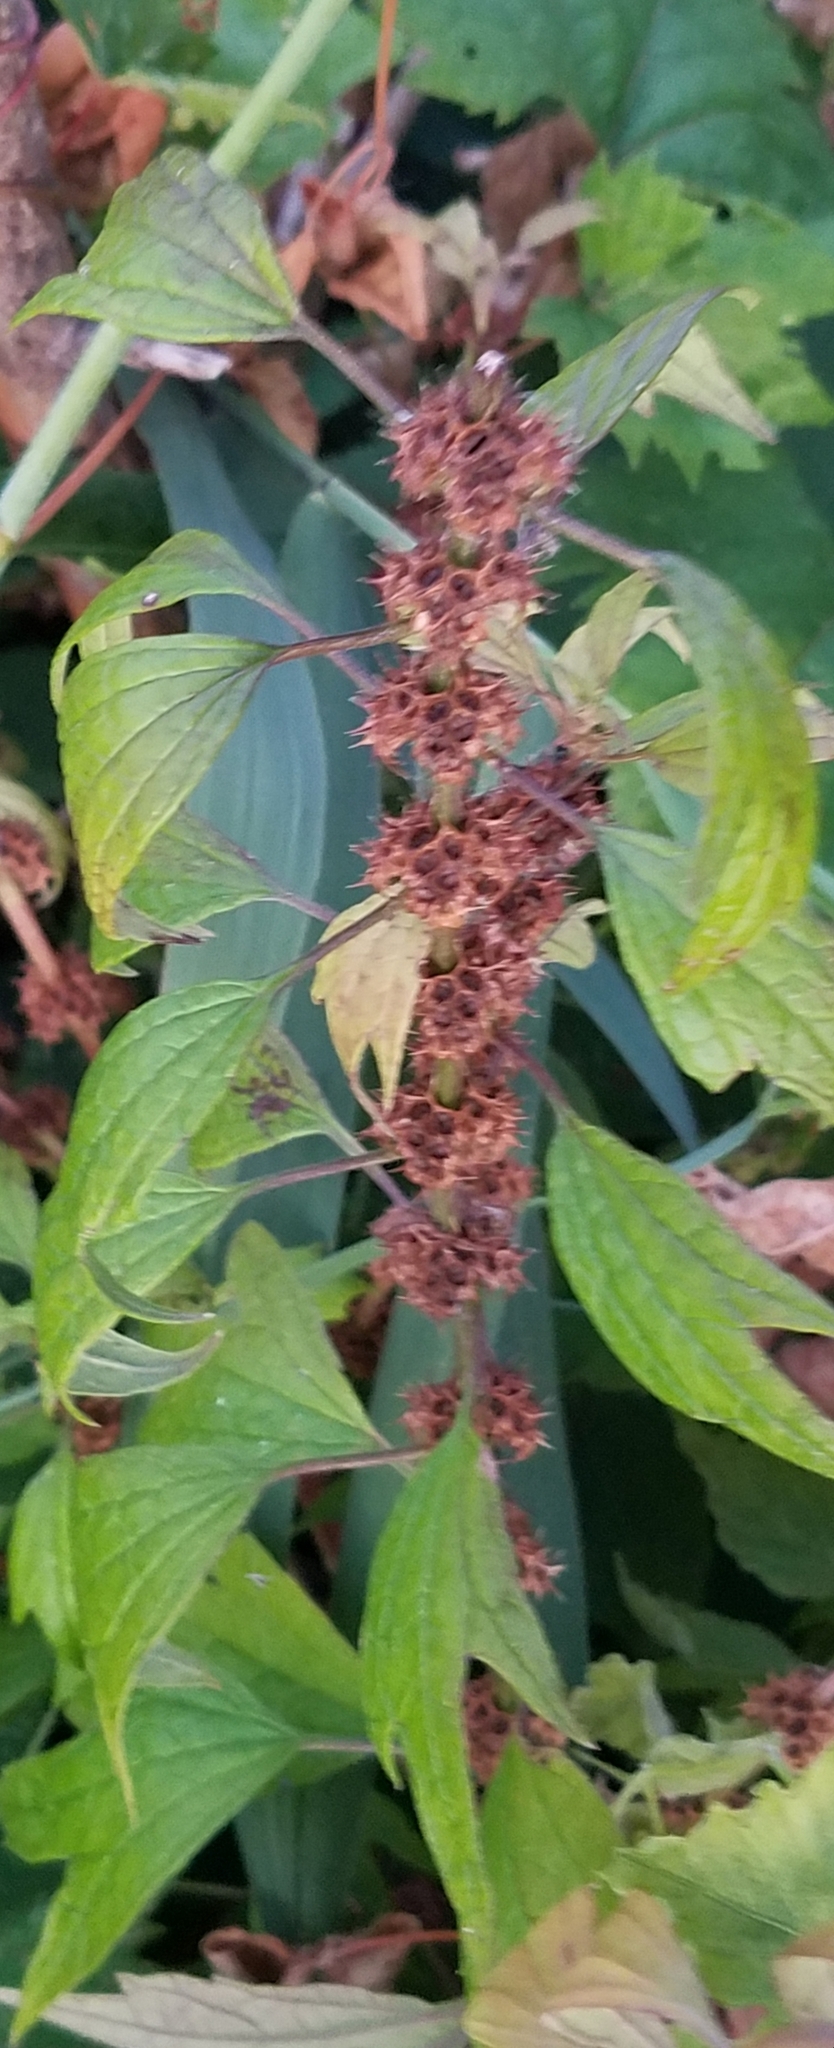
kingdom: Plantae
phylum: Tracheophyta
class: Magnoliopsida
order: Lamiales
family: Lamiaceae
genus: Leonurus
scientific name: Leonurus cardiaca
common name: Motherwort
